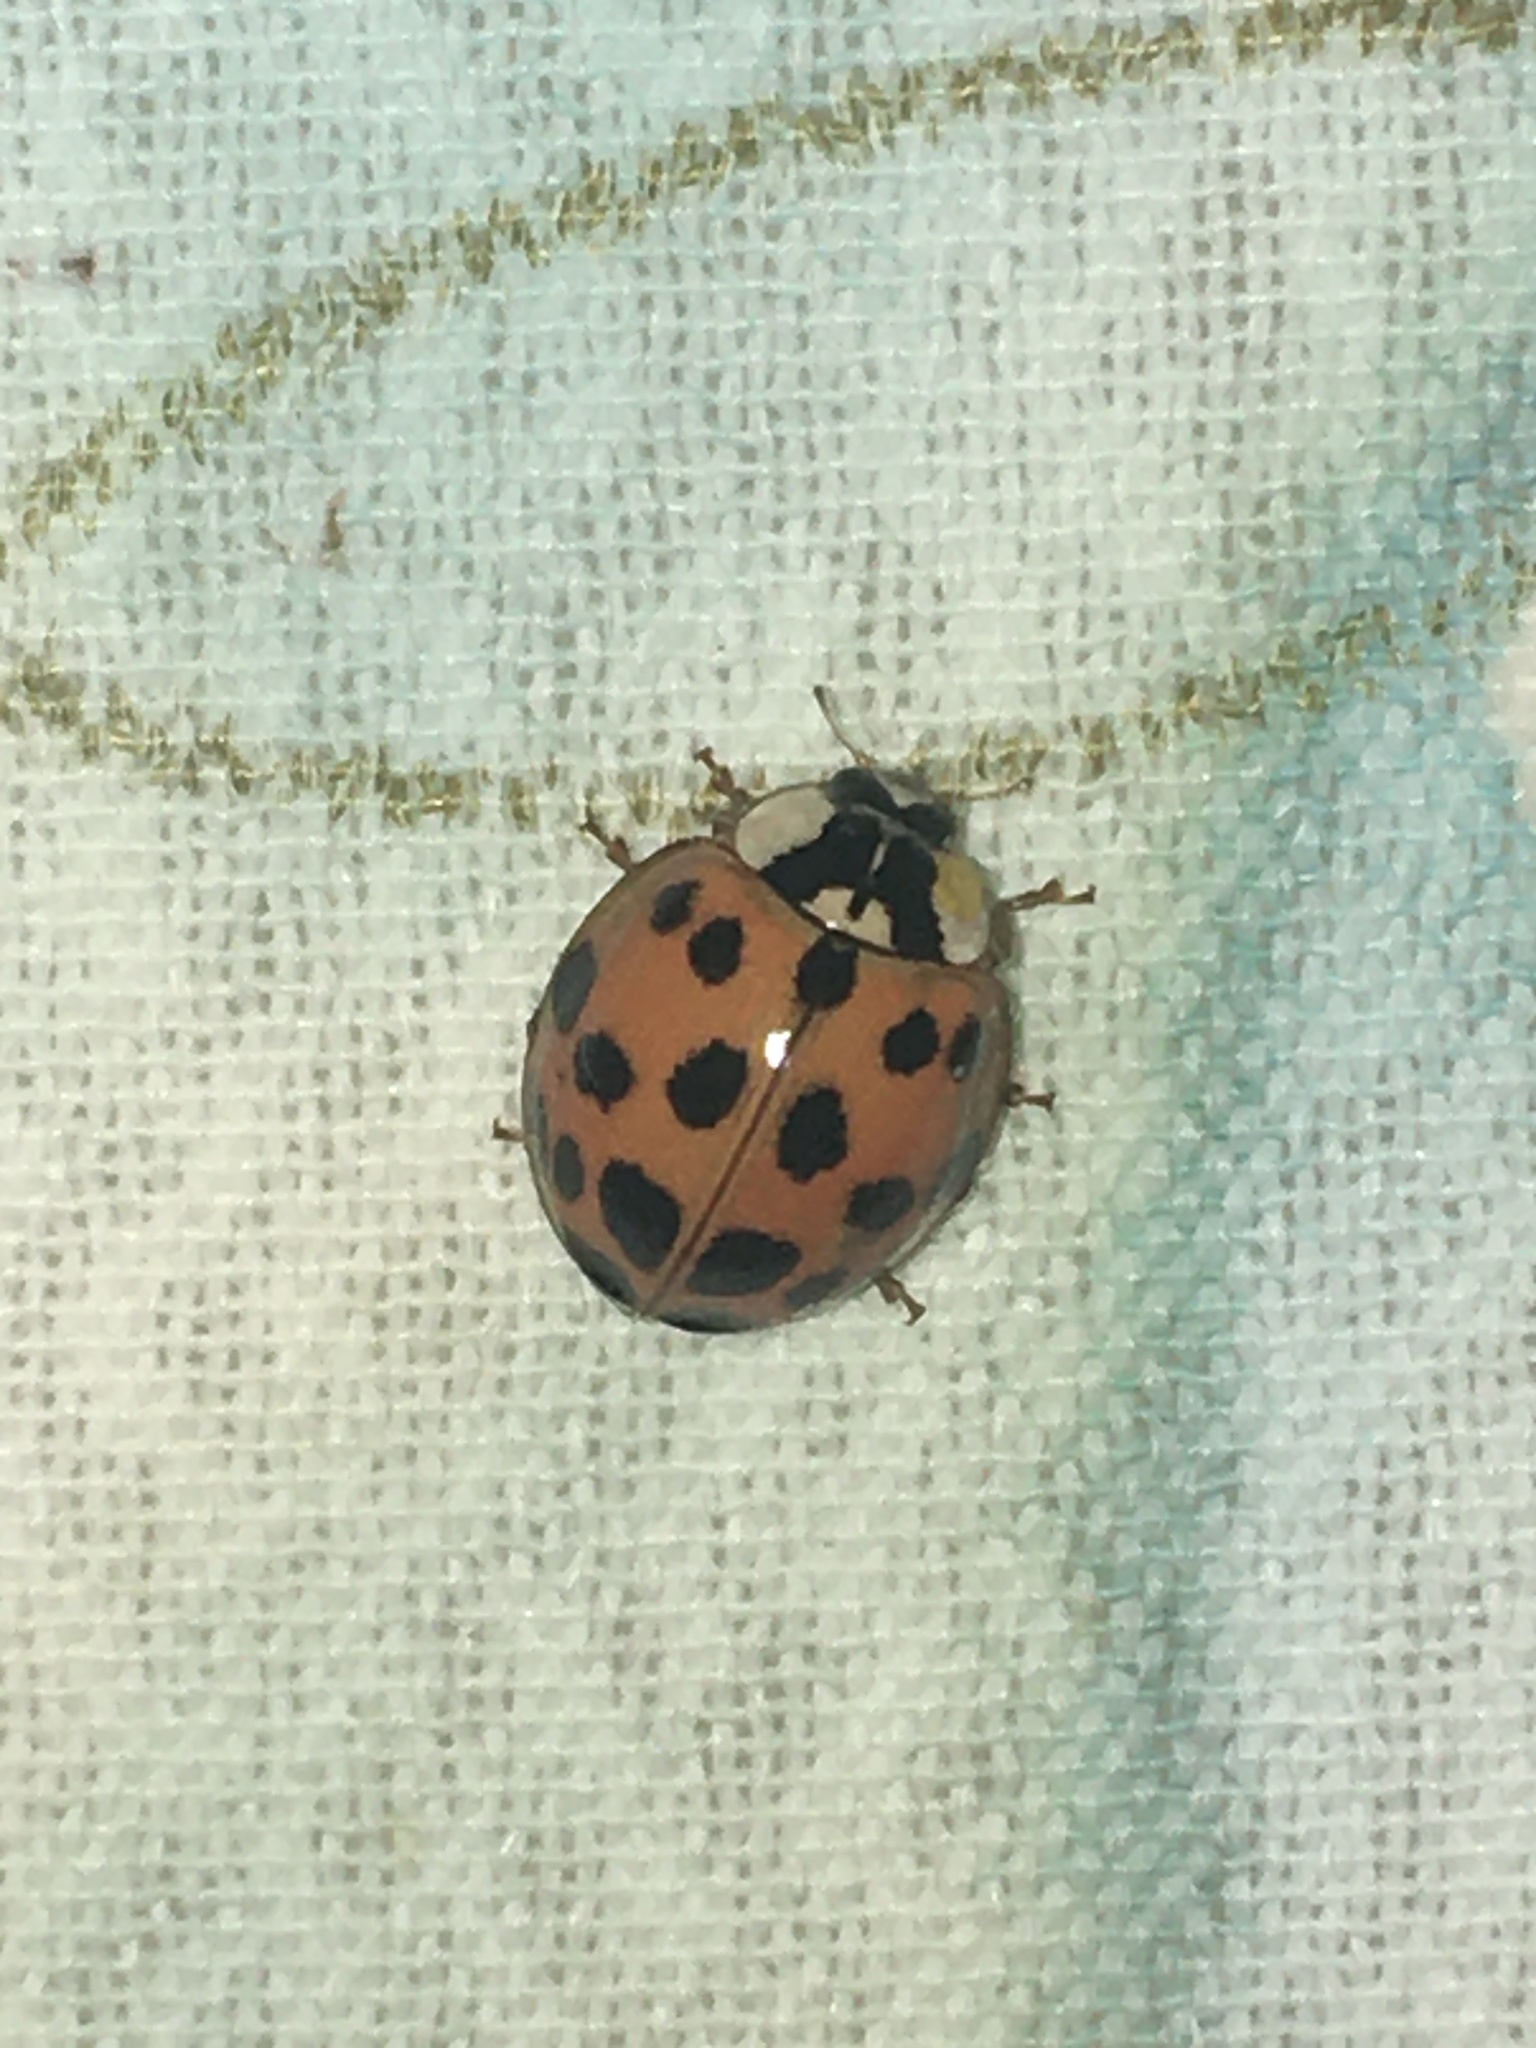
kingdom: Animalia
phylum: Arthropoda
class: Insecta
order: Coleoptera
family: Coccinellidae
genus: Harmonia
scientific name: Harmonia axyridis
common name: Harlequin ladybird
